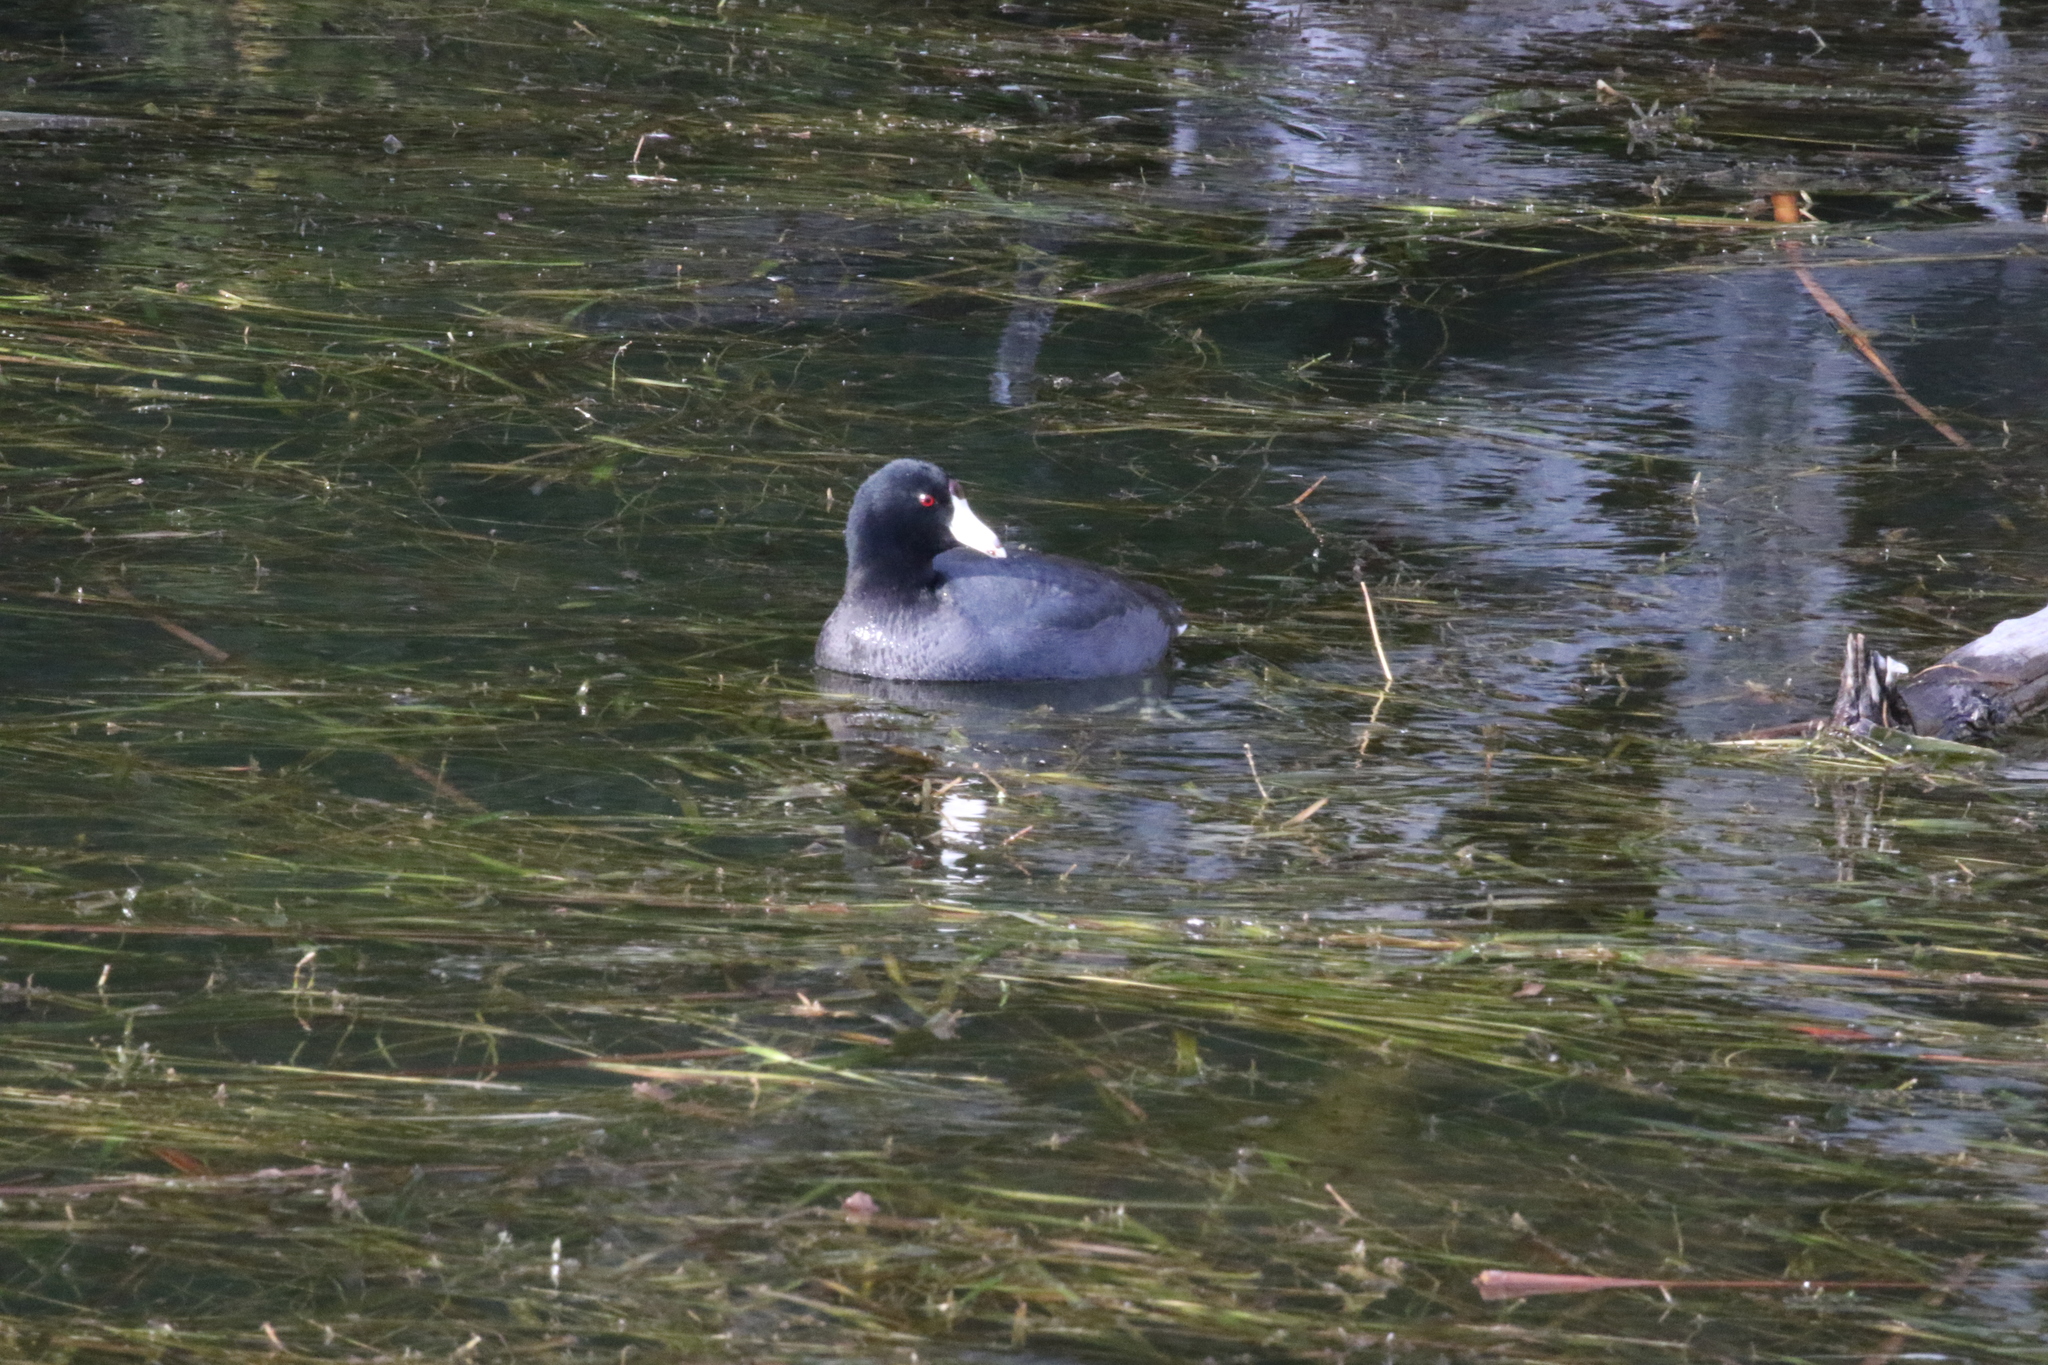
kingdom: Animalia
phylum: Chordata
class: Aves
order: Gruiformes
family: Rallidae
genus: Fulica
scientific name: Fulica americana
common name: American coot
